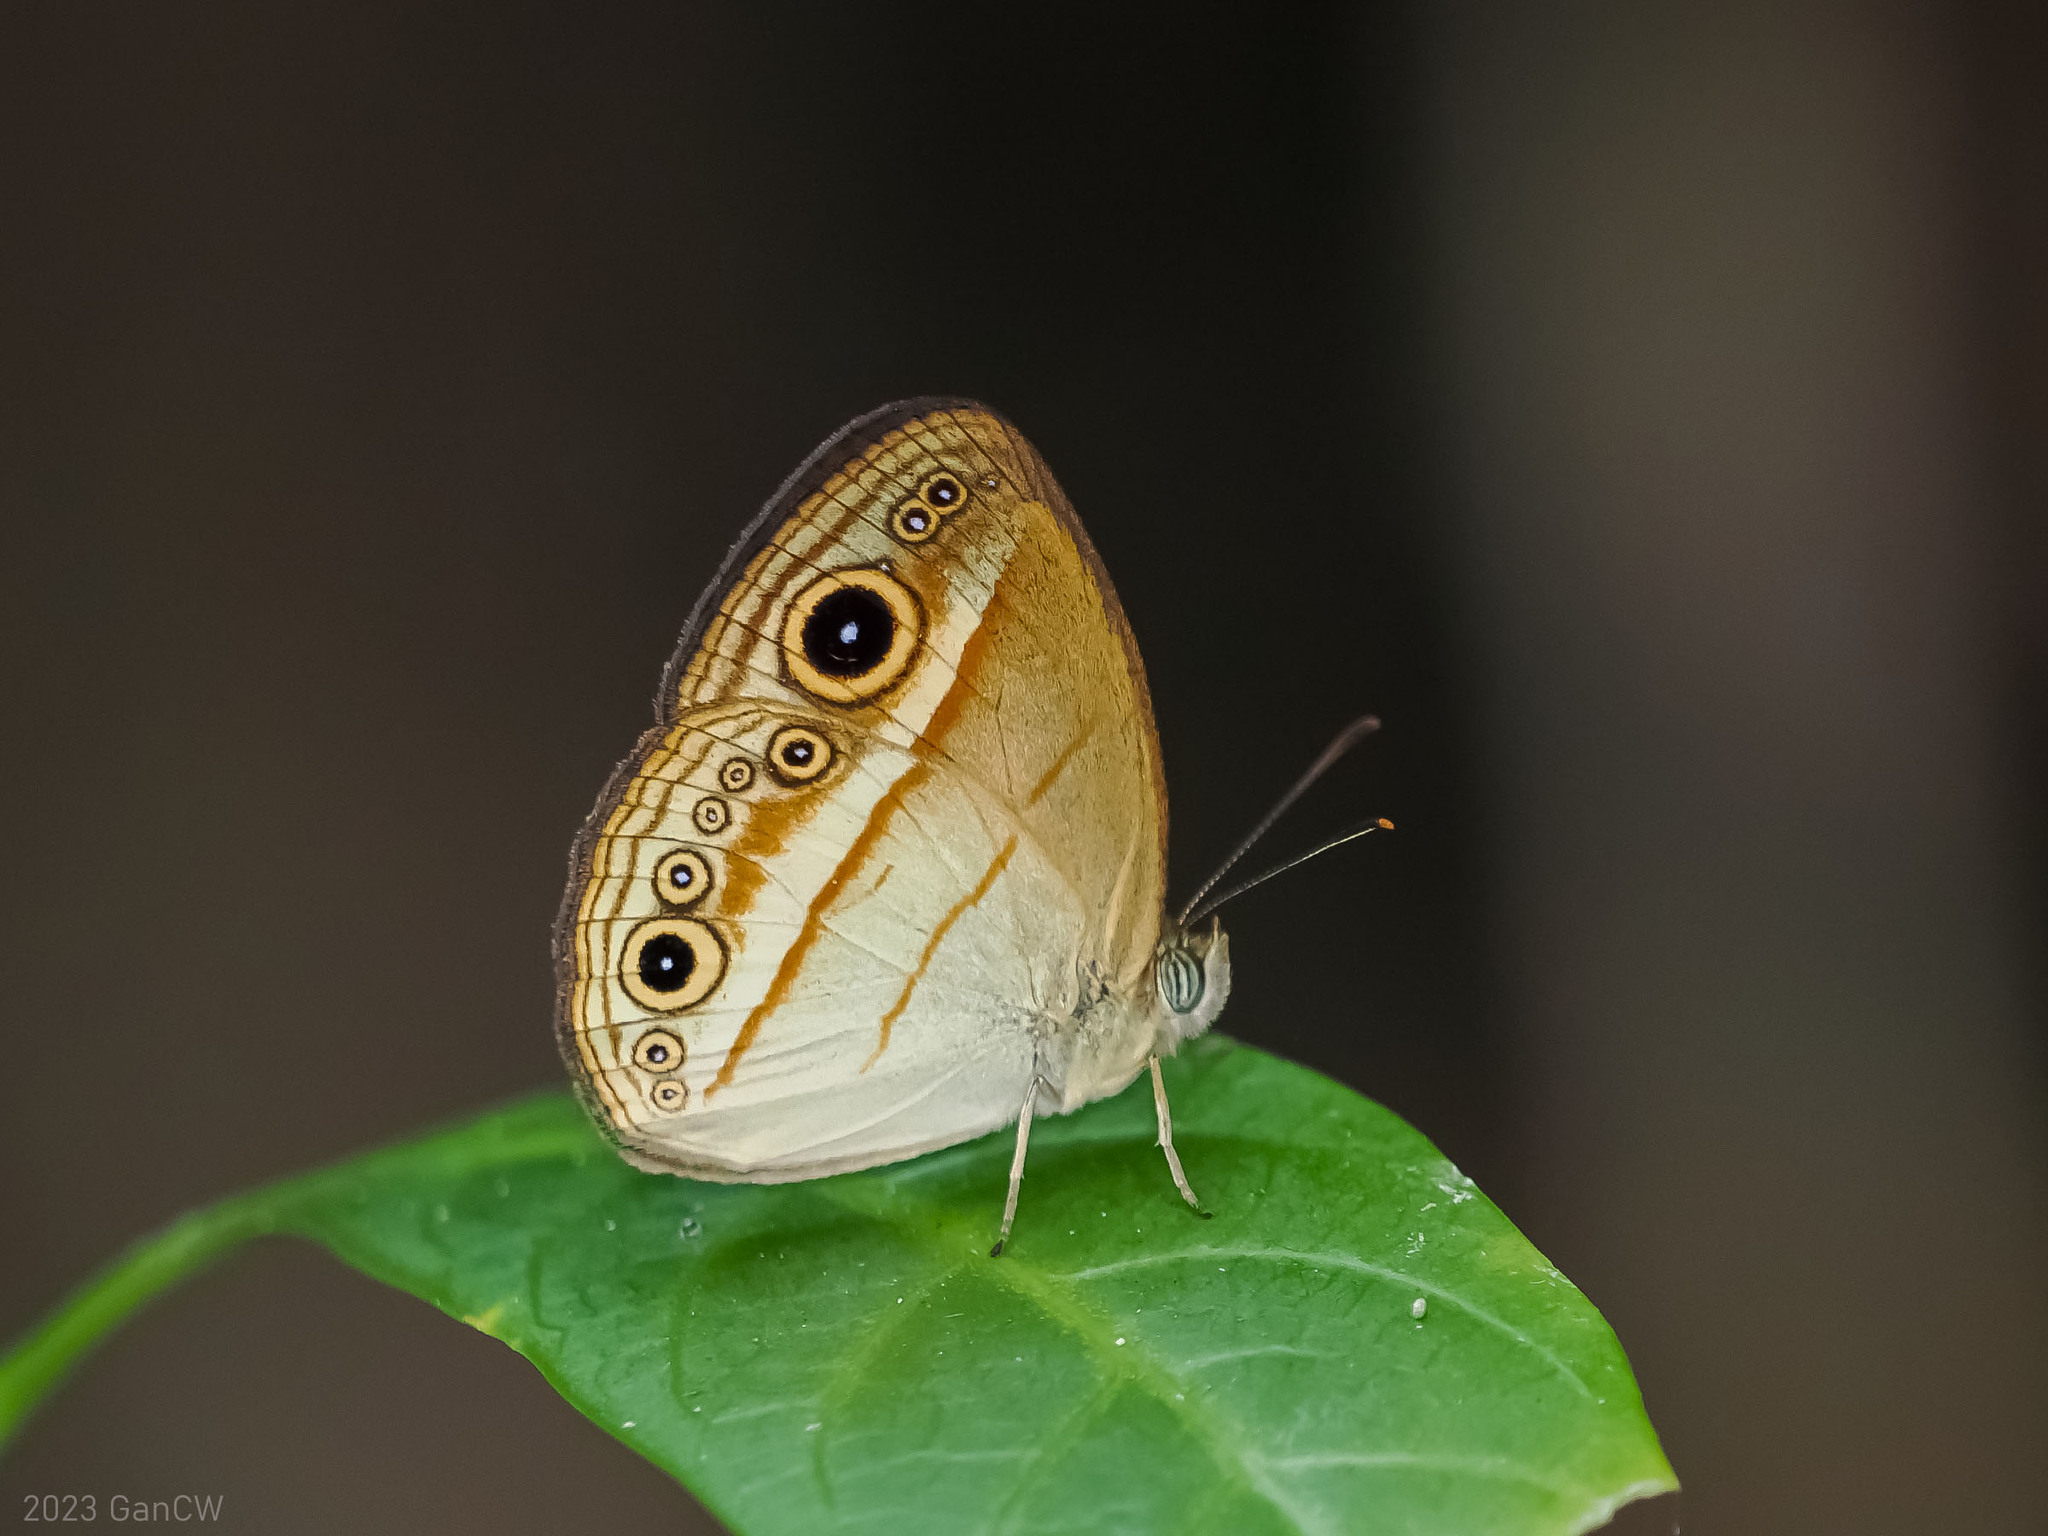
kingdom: Animalia
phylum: Arthropoda
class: Insecta
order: Lepidoptera
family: Nymphalidae
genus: Mycalesis
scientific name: Mycalesis ita
